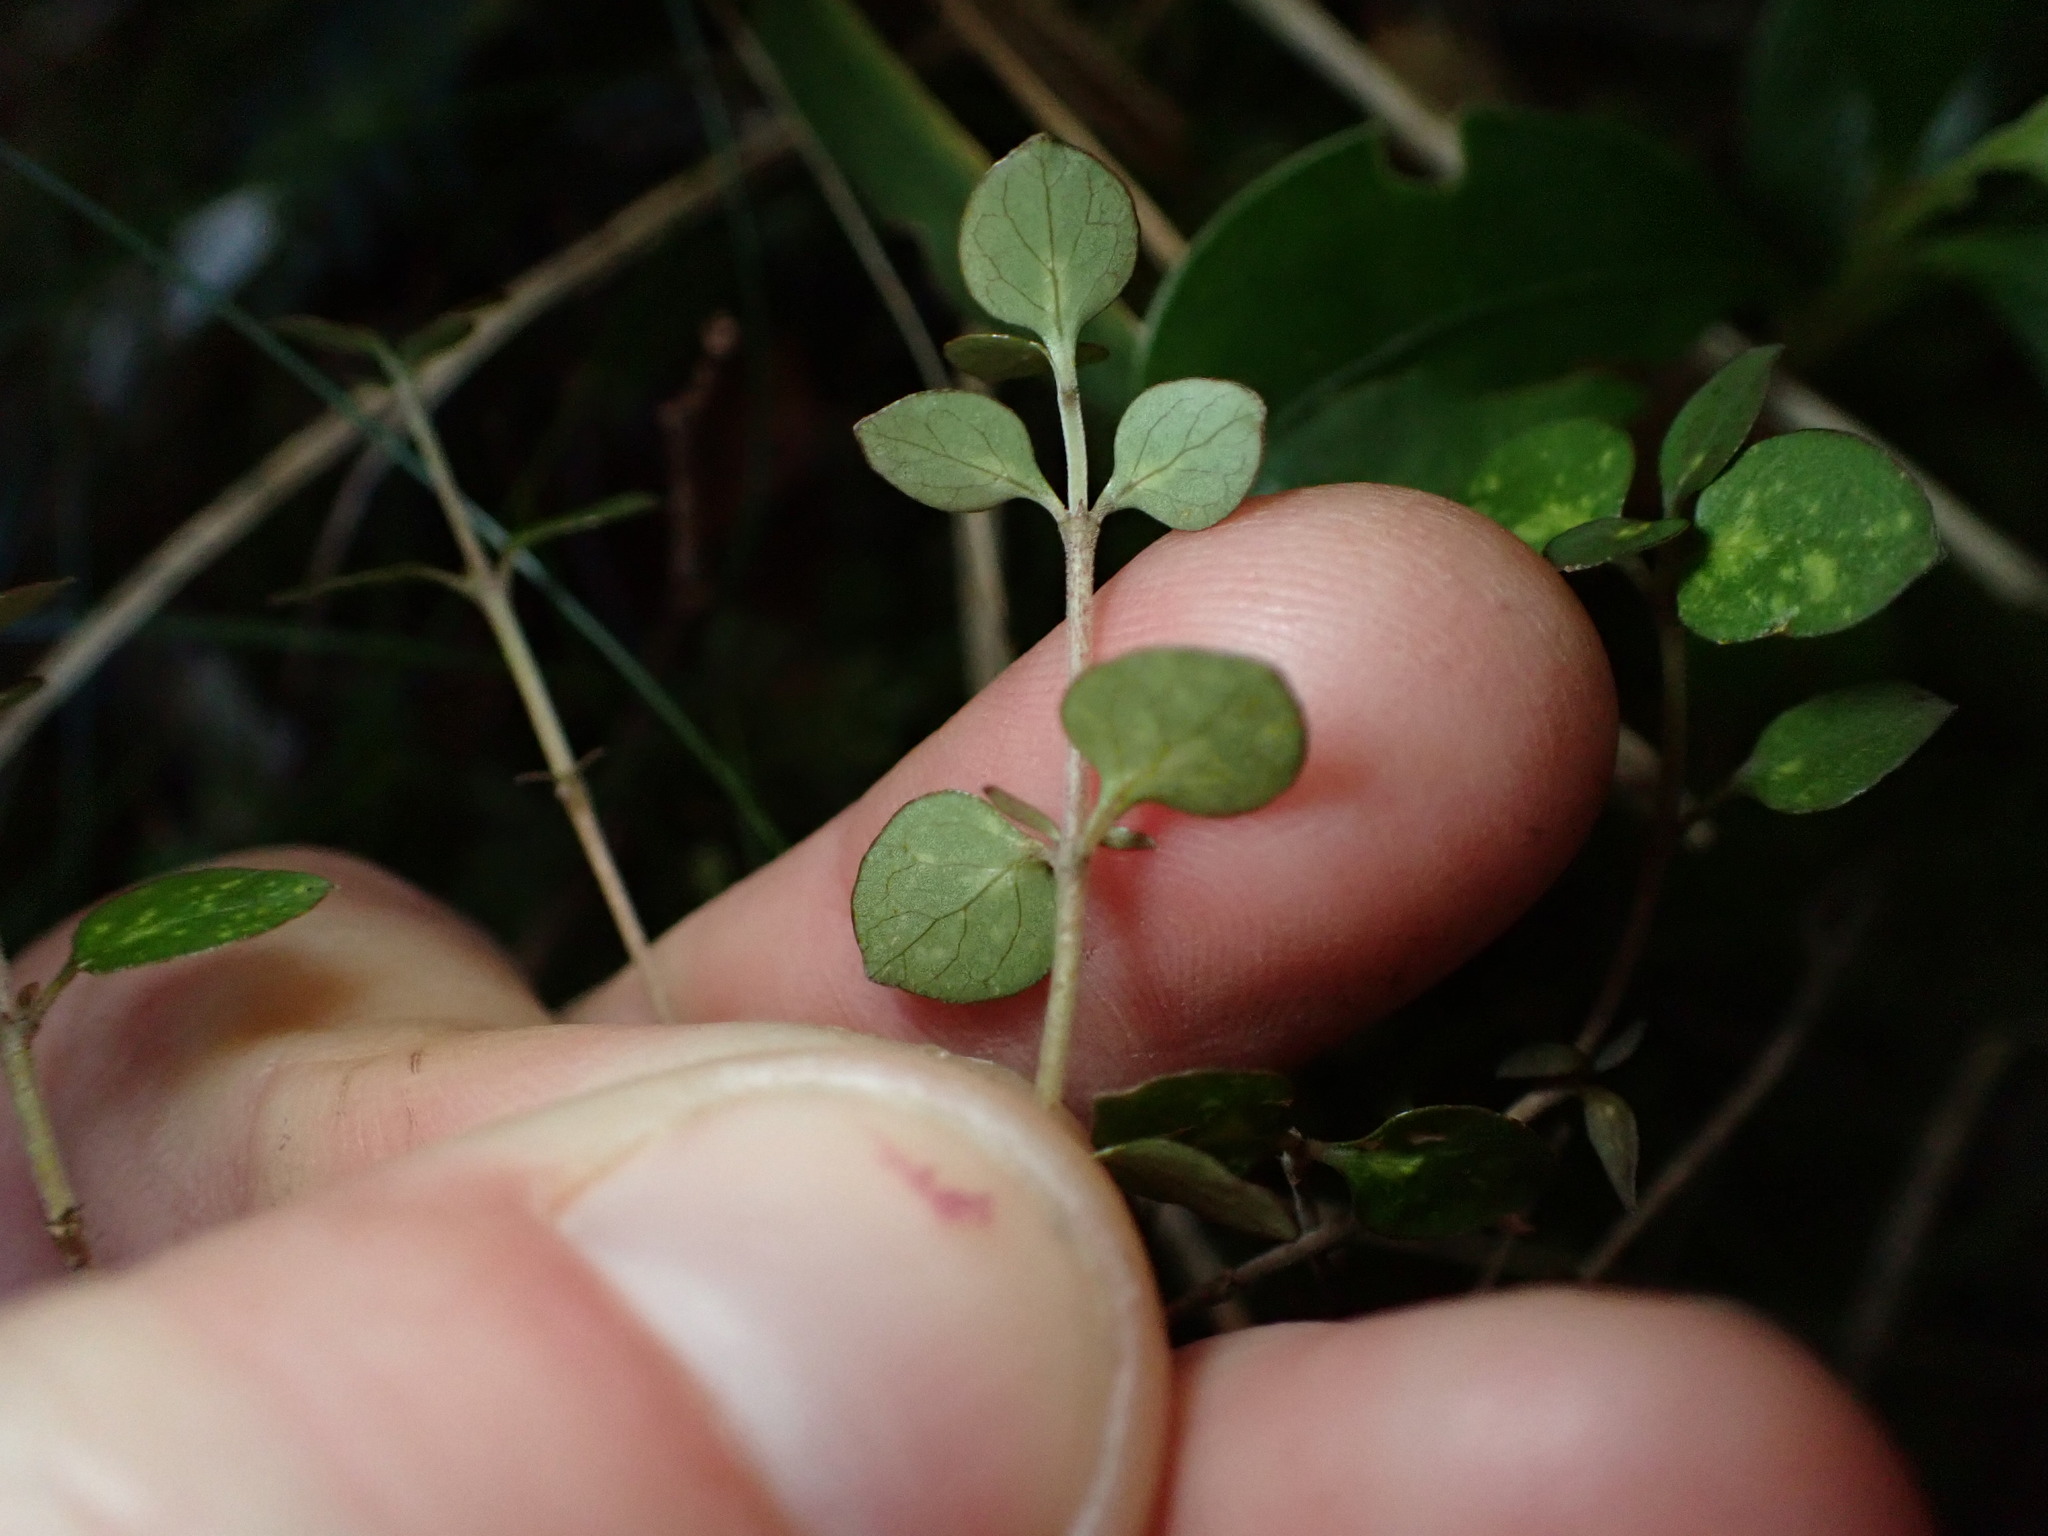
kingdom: Plantae
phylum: Tracheophyta
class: Magnoliopsida
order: Gentianales
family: Rubiaceae
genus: Coprosma
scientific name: Coprosma rhamnoides
